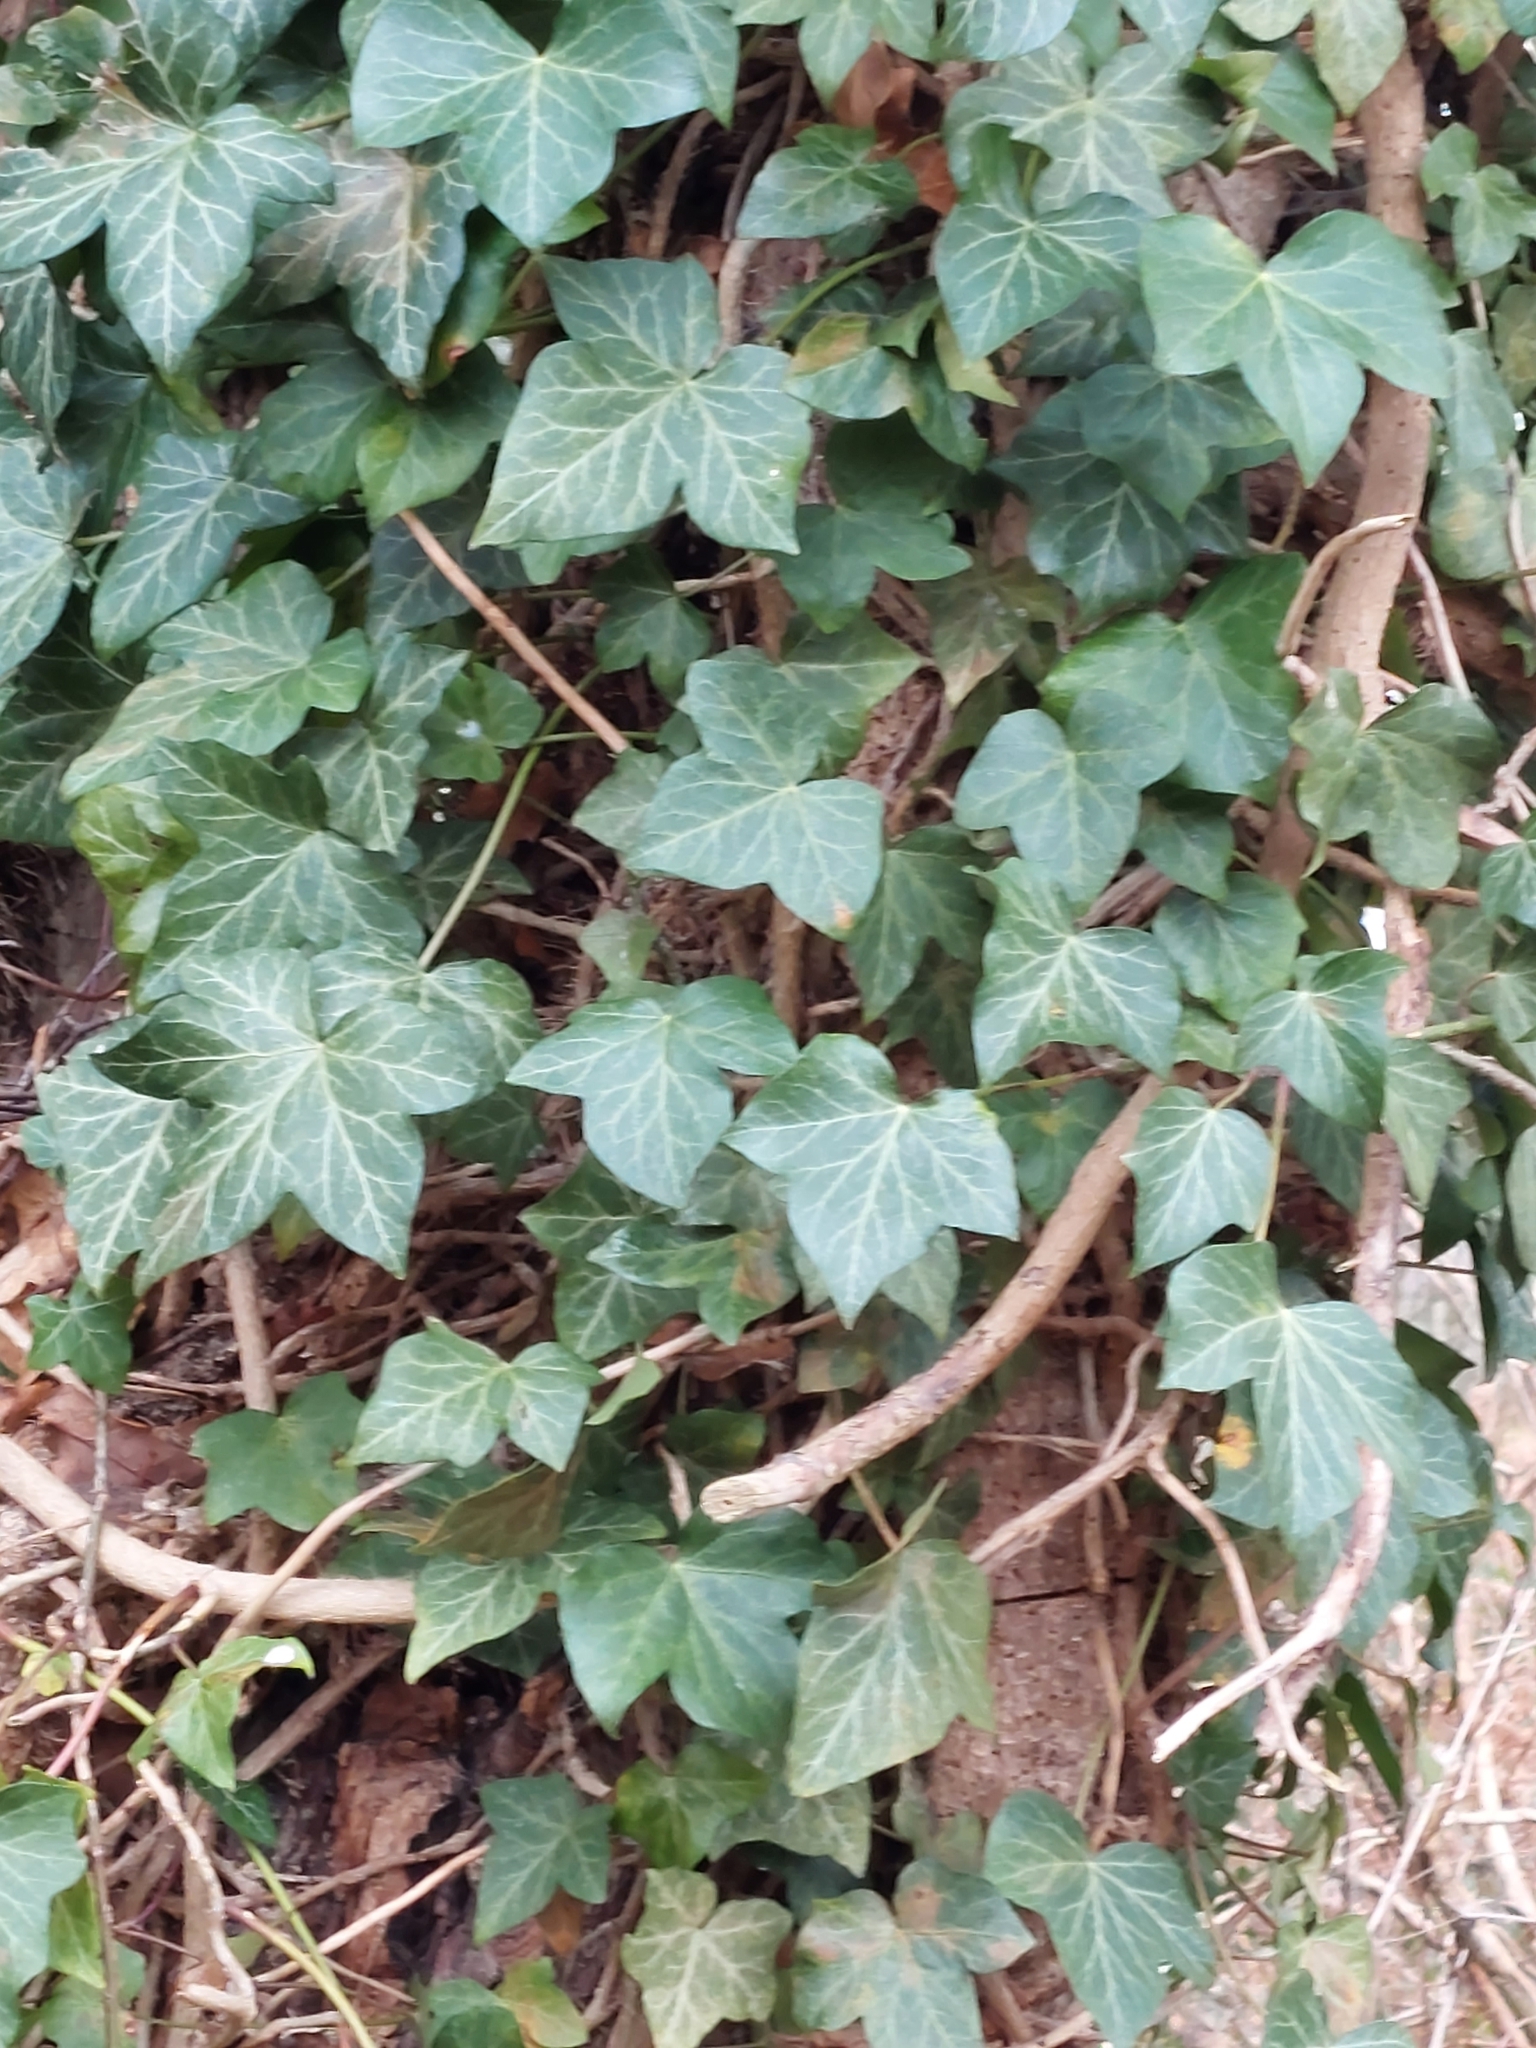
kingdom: Plantae
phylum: Tracheophyta
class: Magnoliopsida
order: Apiales
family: Araliaceae
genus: Hedera
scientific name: Hedera helix
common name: Ivy
